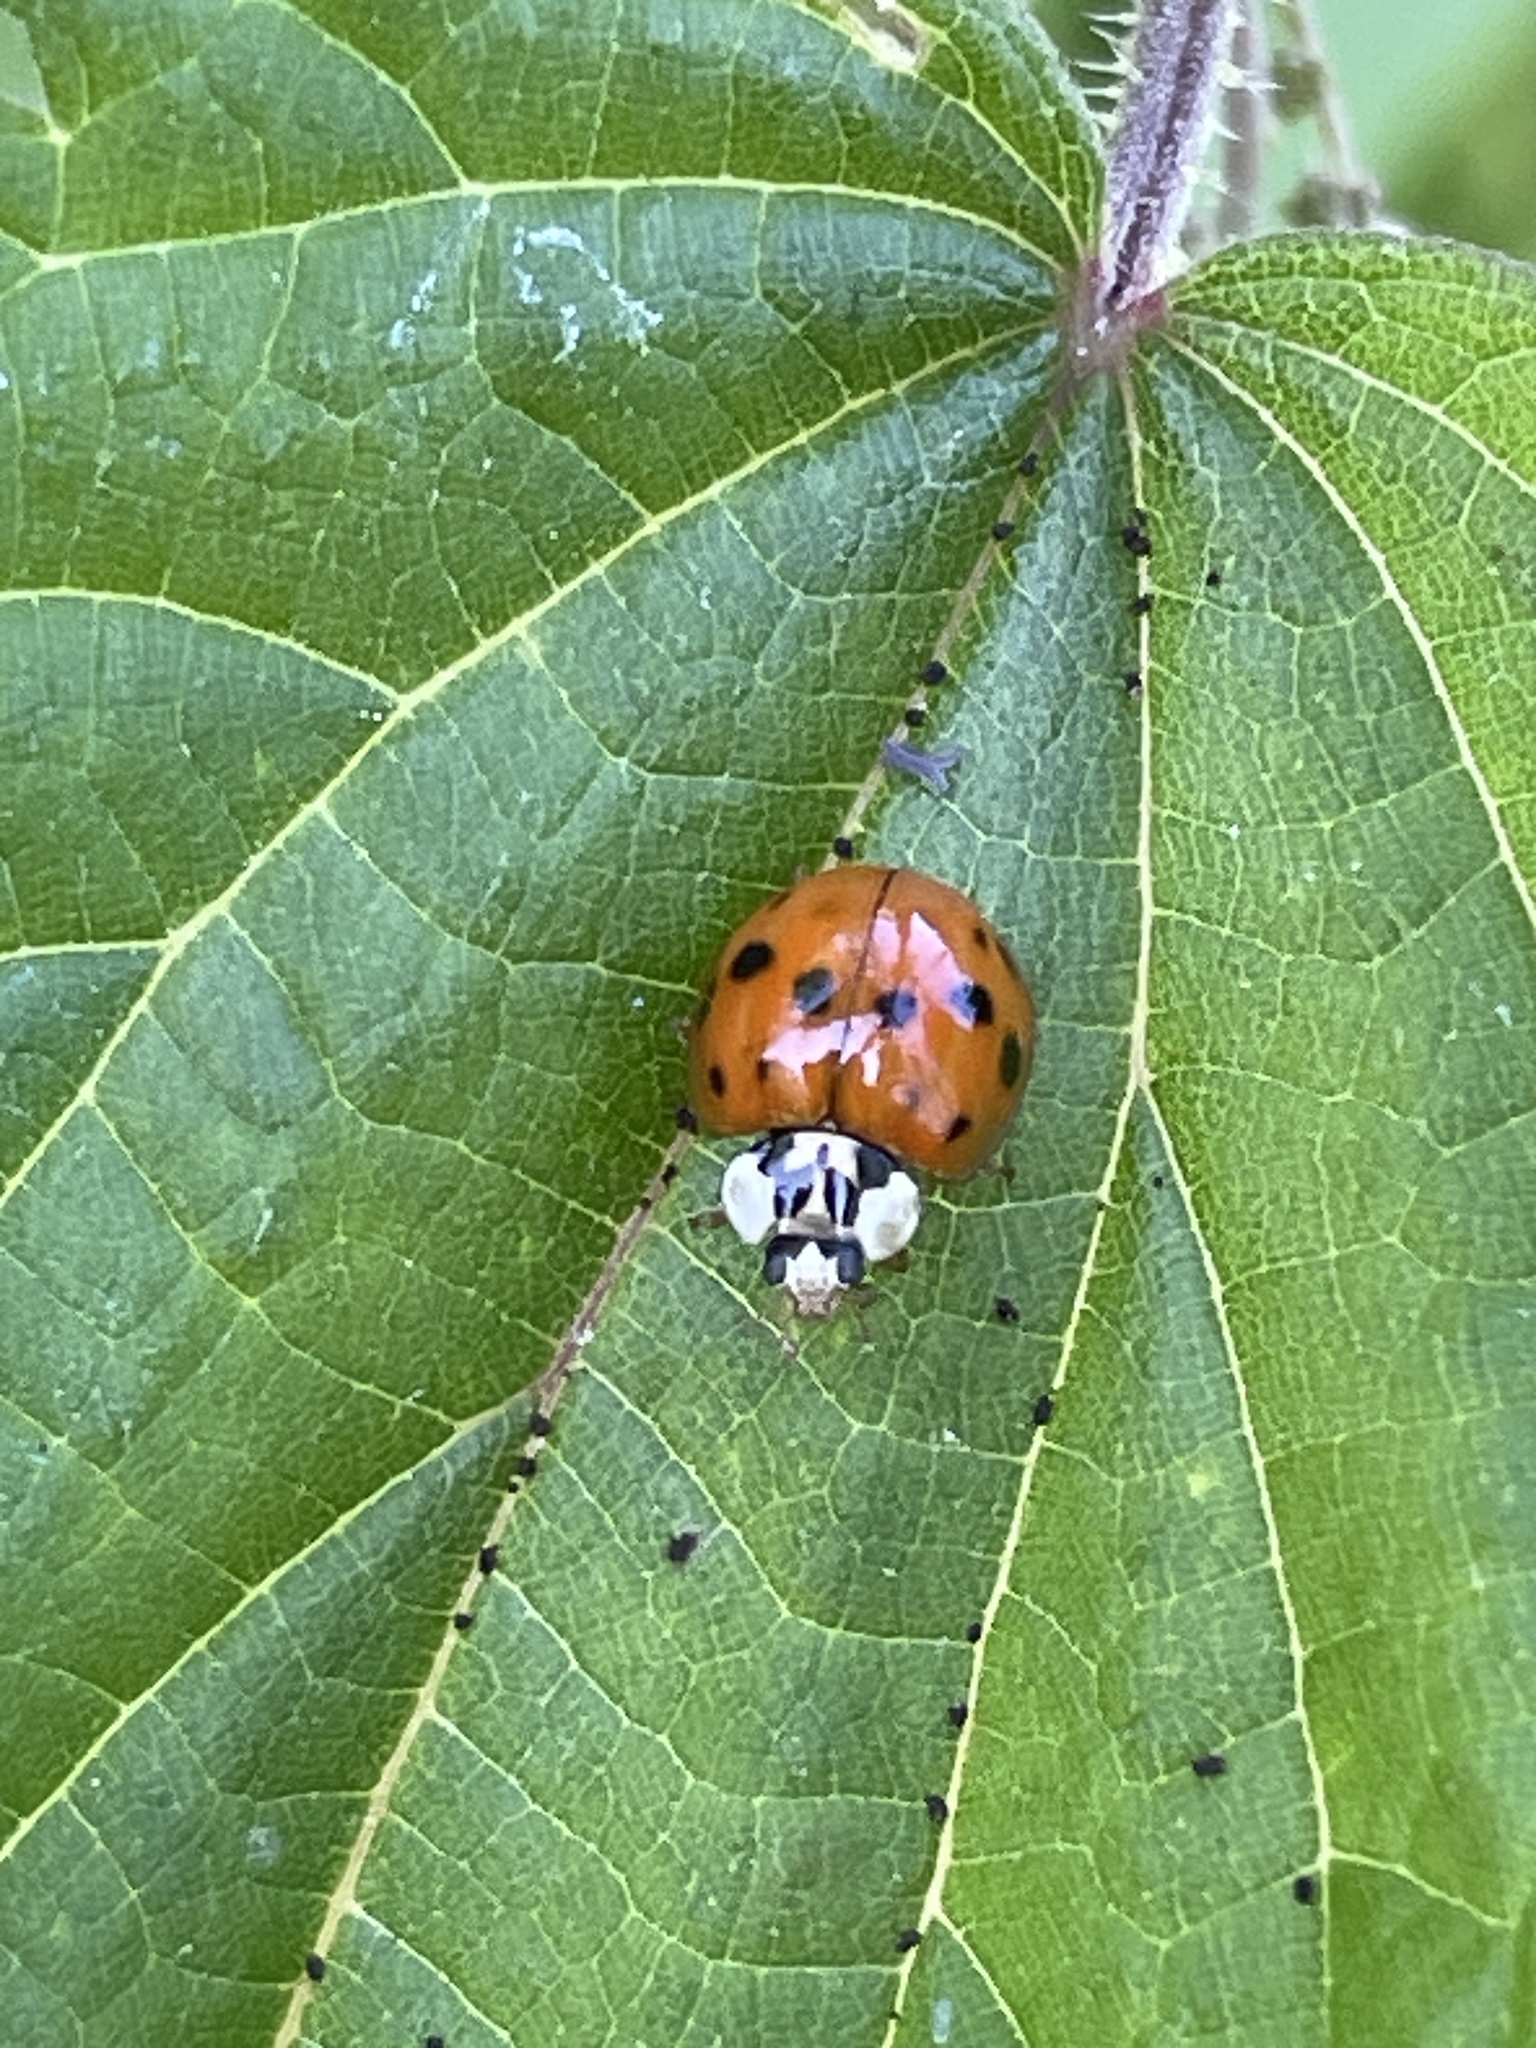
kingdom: Animalia
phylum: Arthropoda
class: Insecta
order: Coleoptera
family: Coccinellidae
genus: Harmonia
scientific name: Harmonia axyridis
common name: Harlequin ladybird
